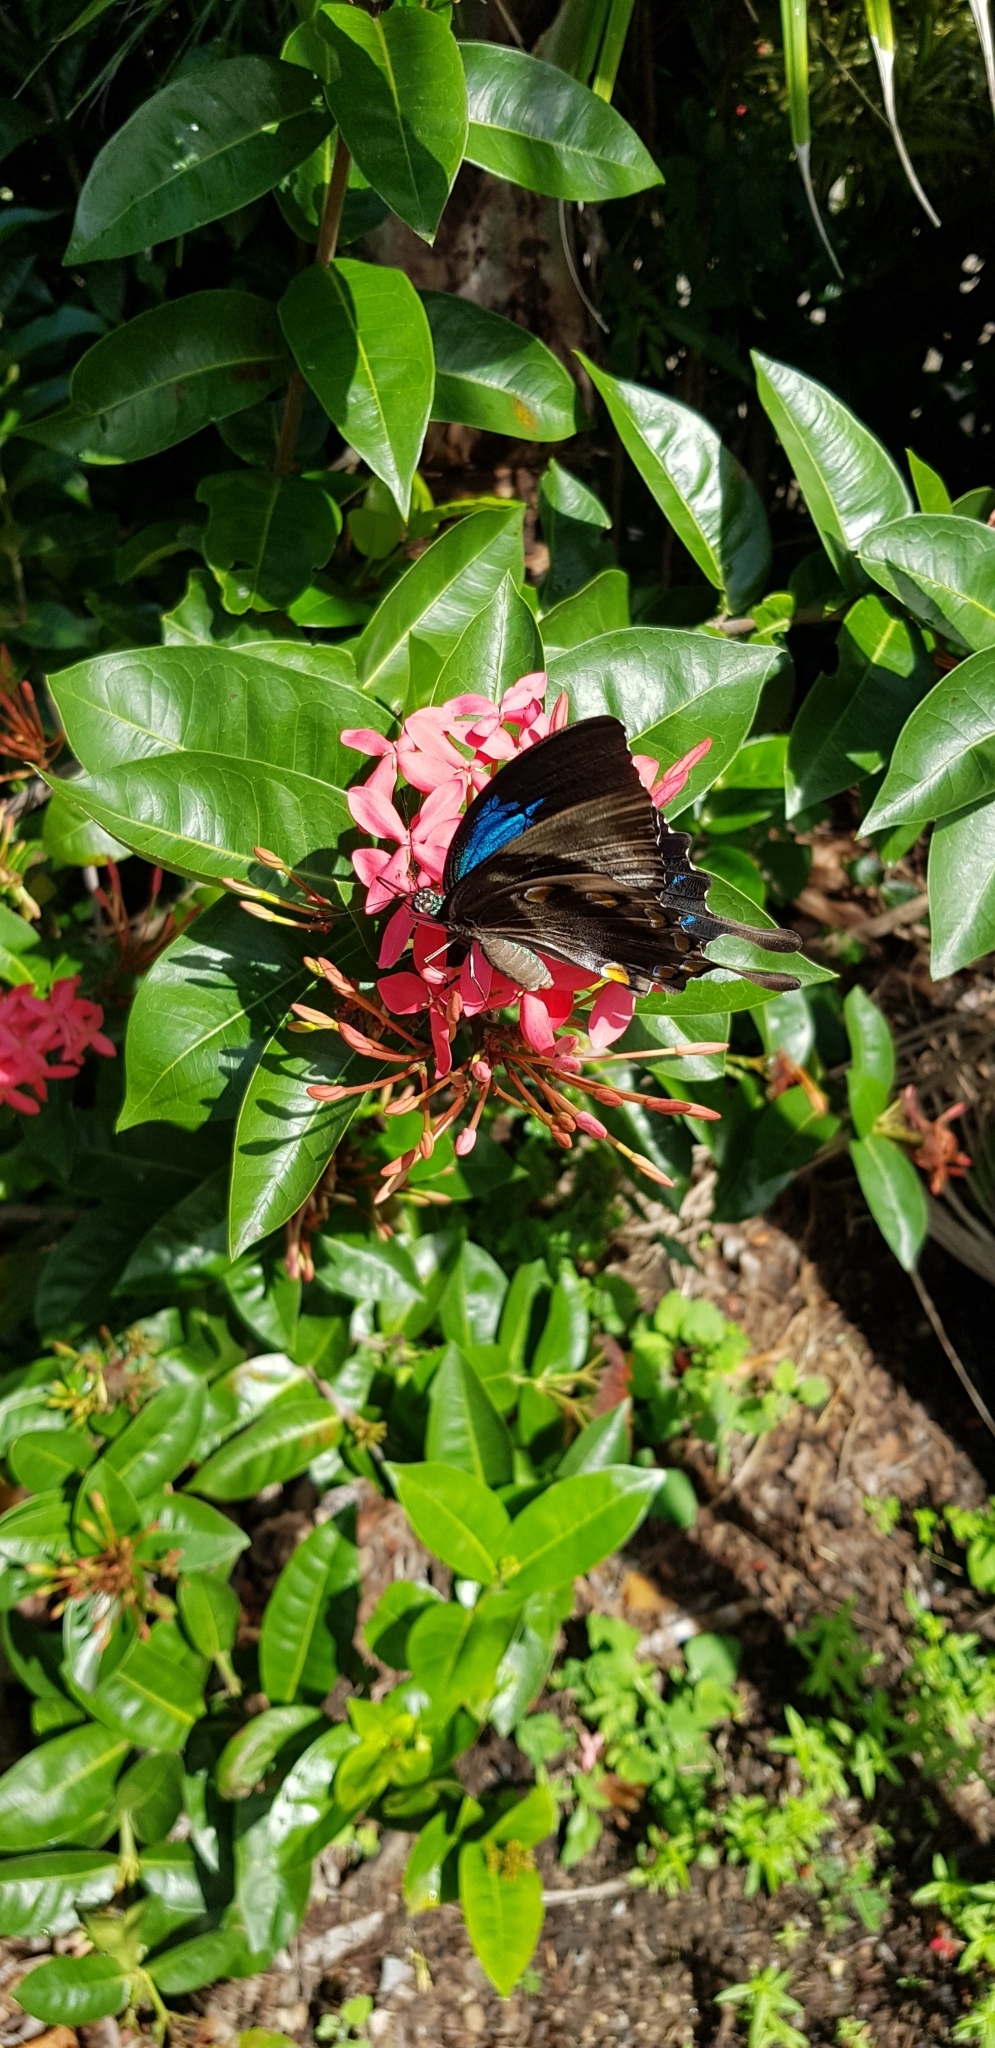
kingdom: Animalia
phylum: Arthropoda
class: Insecta
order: Lepidoptera
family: Papilionidae
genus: Papilio
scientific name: Papilio ulysses
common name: Blue emperor
